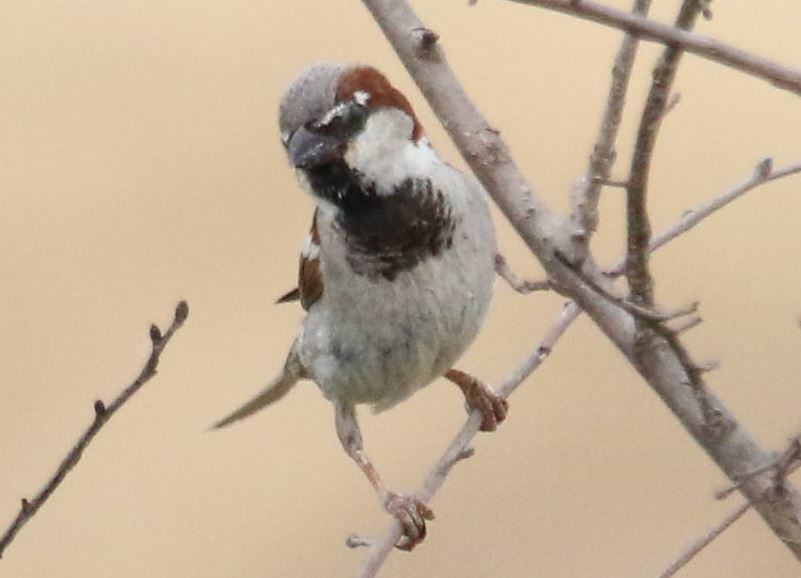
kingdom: Animalia
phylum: Chordata
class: Aves
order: Passeriformes
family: Passeridae
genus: Passer
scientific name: Passer domesticus
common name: House sparrow
